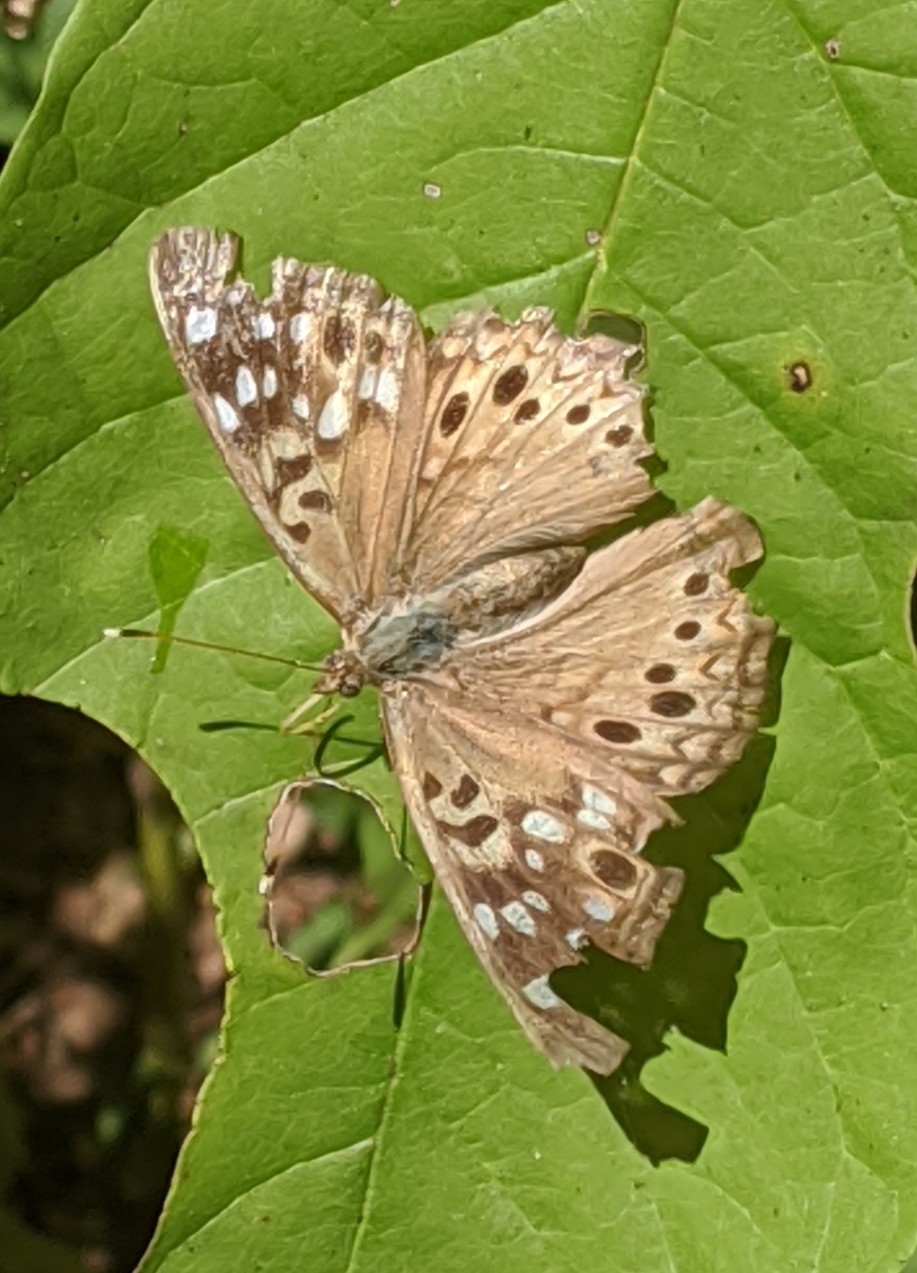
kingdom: Animalia
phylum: Arthropoda
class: Insecta
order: Lepidoptera
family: Nymphalidae
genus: Asterocampa
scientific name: Asterocampa celtis
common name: Hackberry emperor
